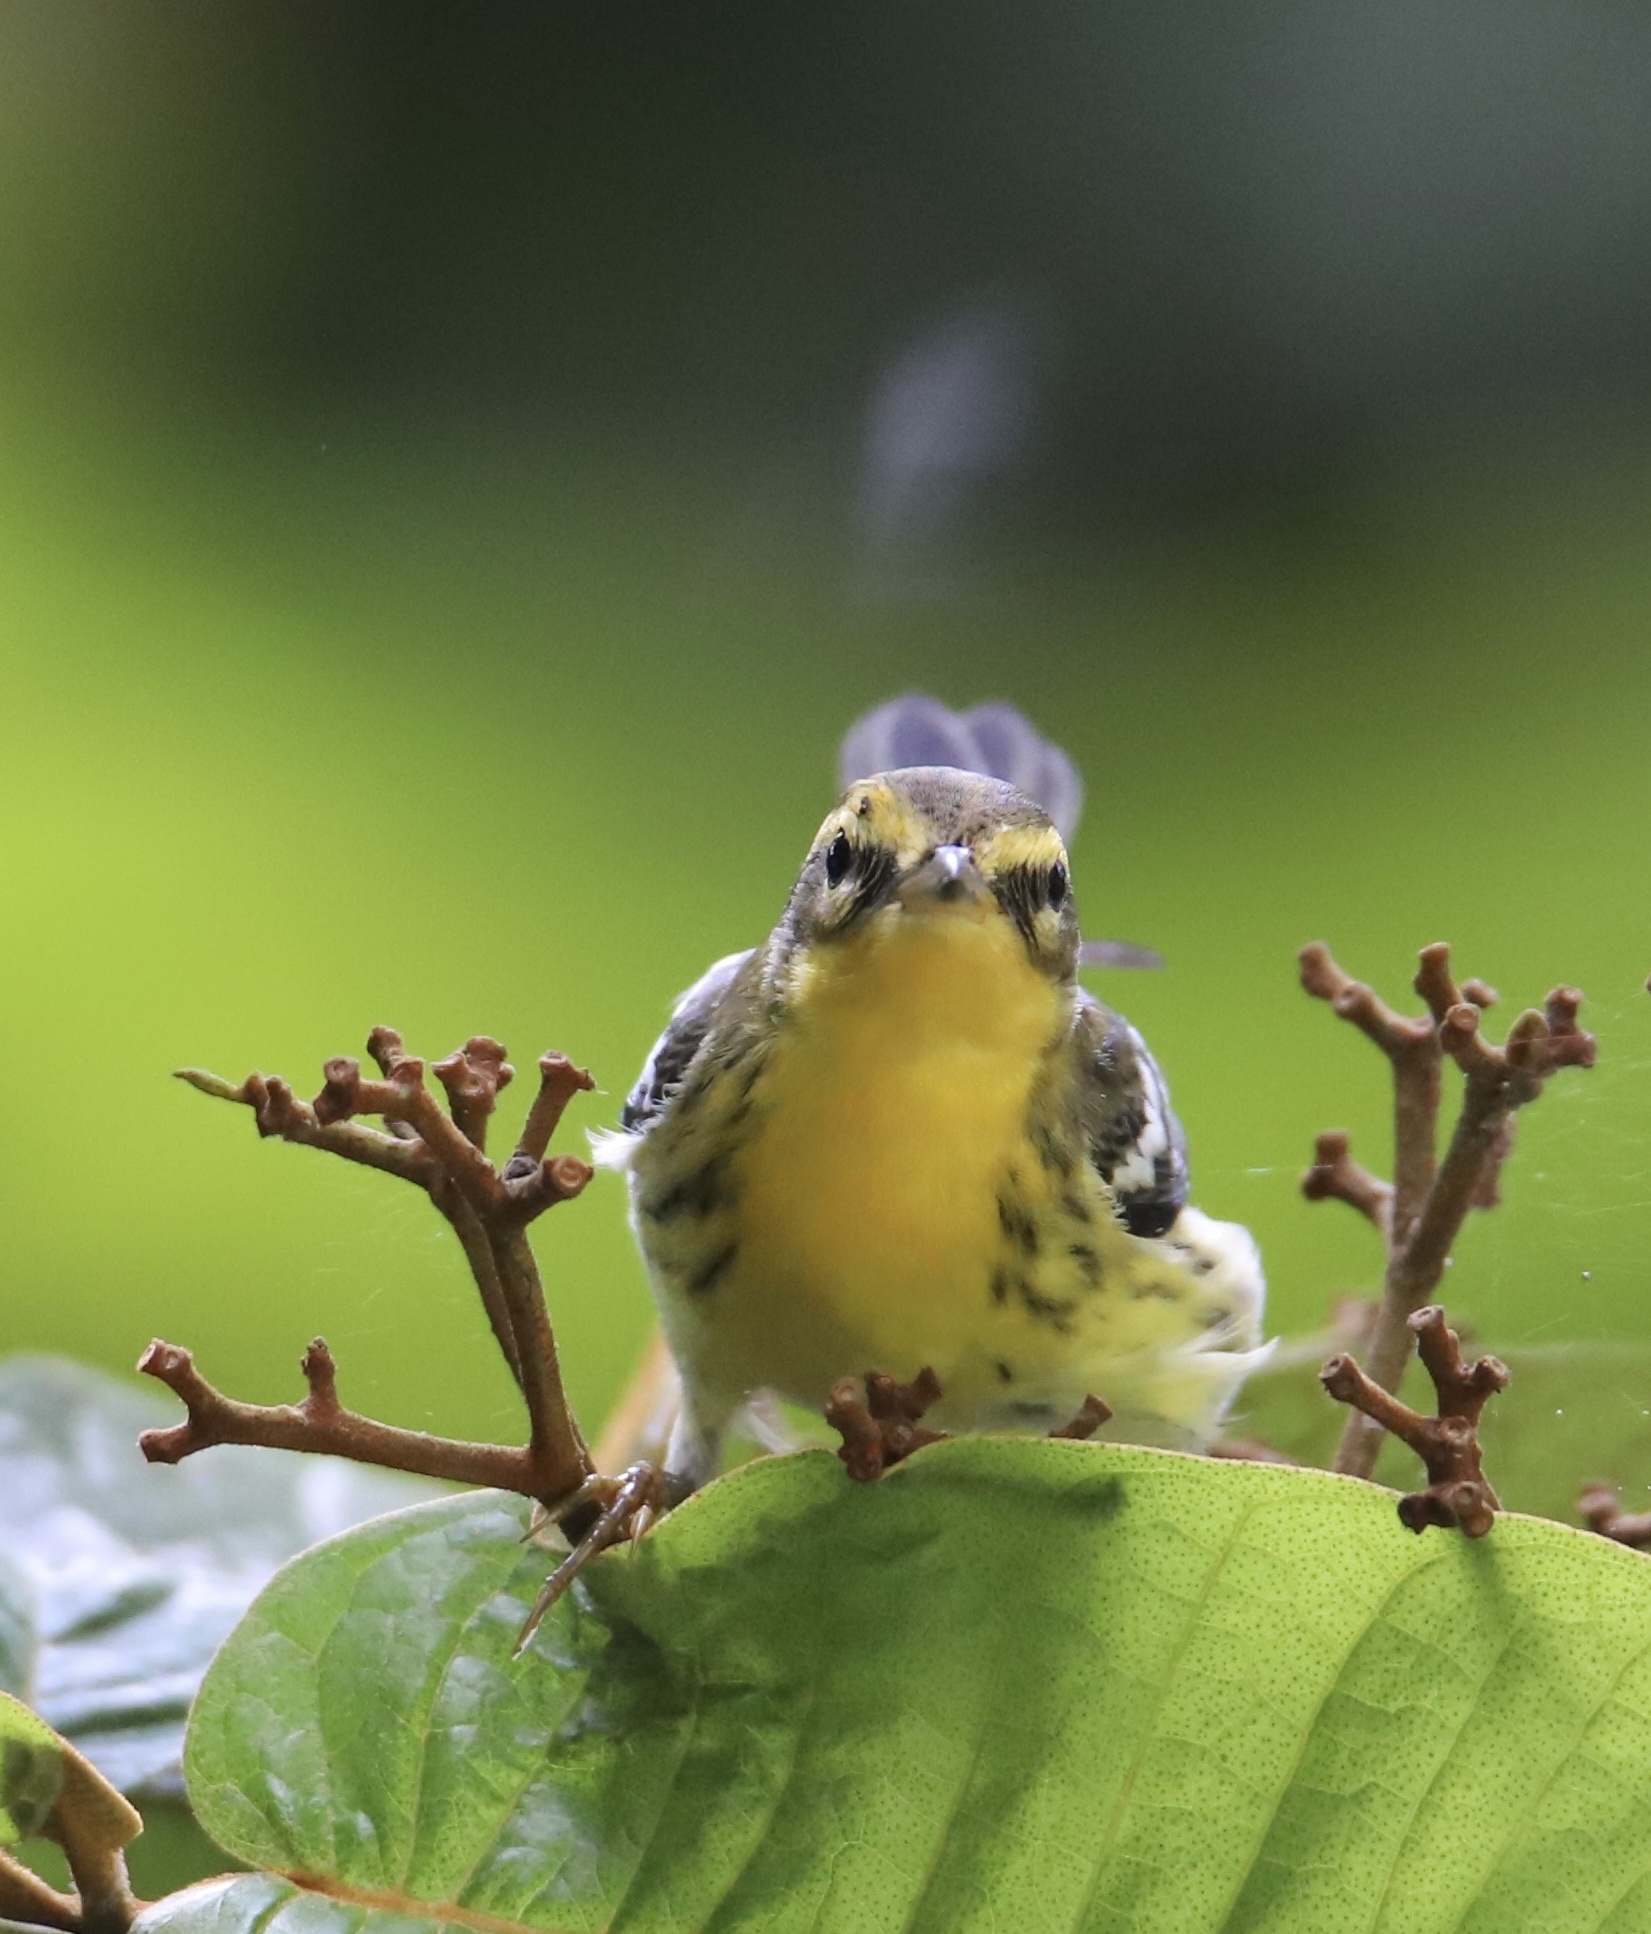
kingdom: Animalia
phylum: Chordata
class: Aves
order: Passeriformes
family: Parulidae
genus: Setophaga
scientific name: Setophaga fusca
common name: Blackburnian warbler
